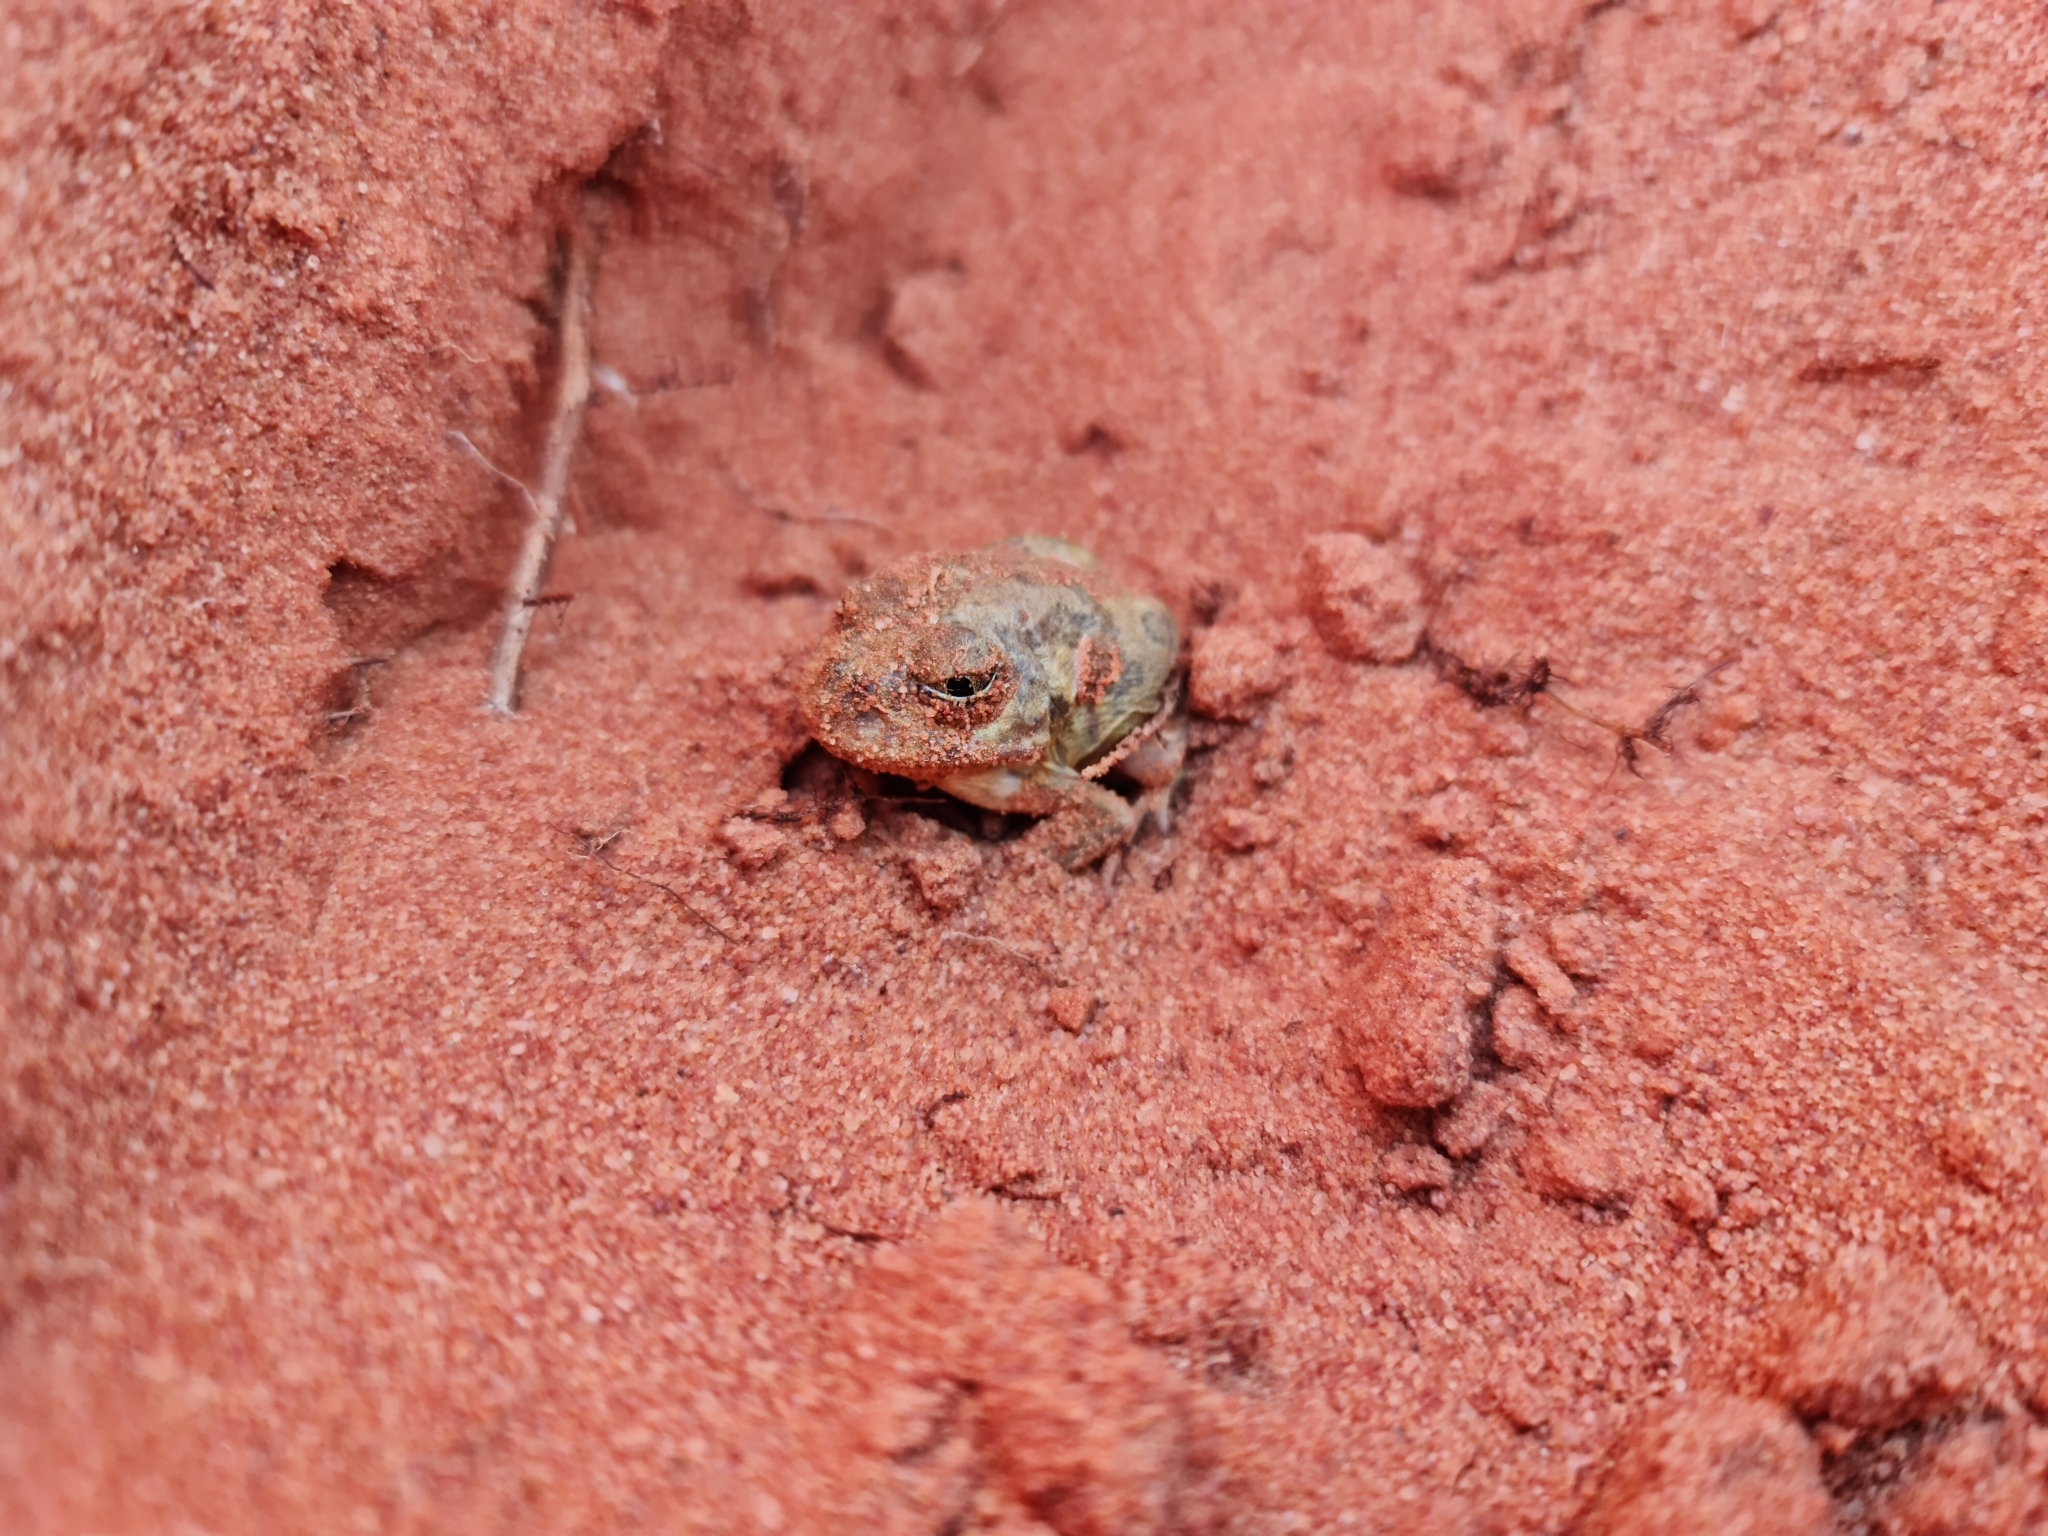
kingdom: Animalia
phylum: Chordata
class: Amphibia
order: Anura
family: Limnodynastidae
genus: Neobatrachus
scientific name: Neobatrachus sudelli
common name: Common spadefoot toad
